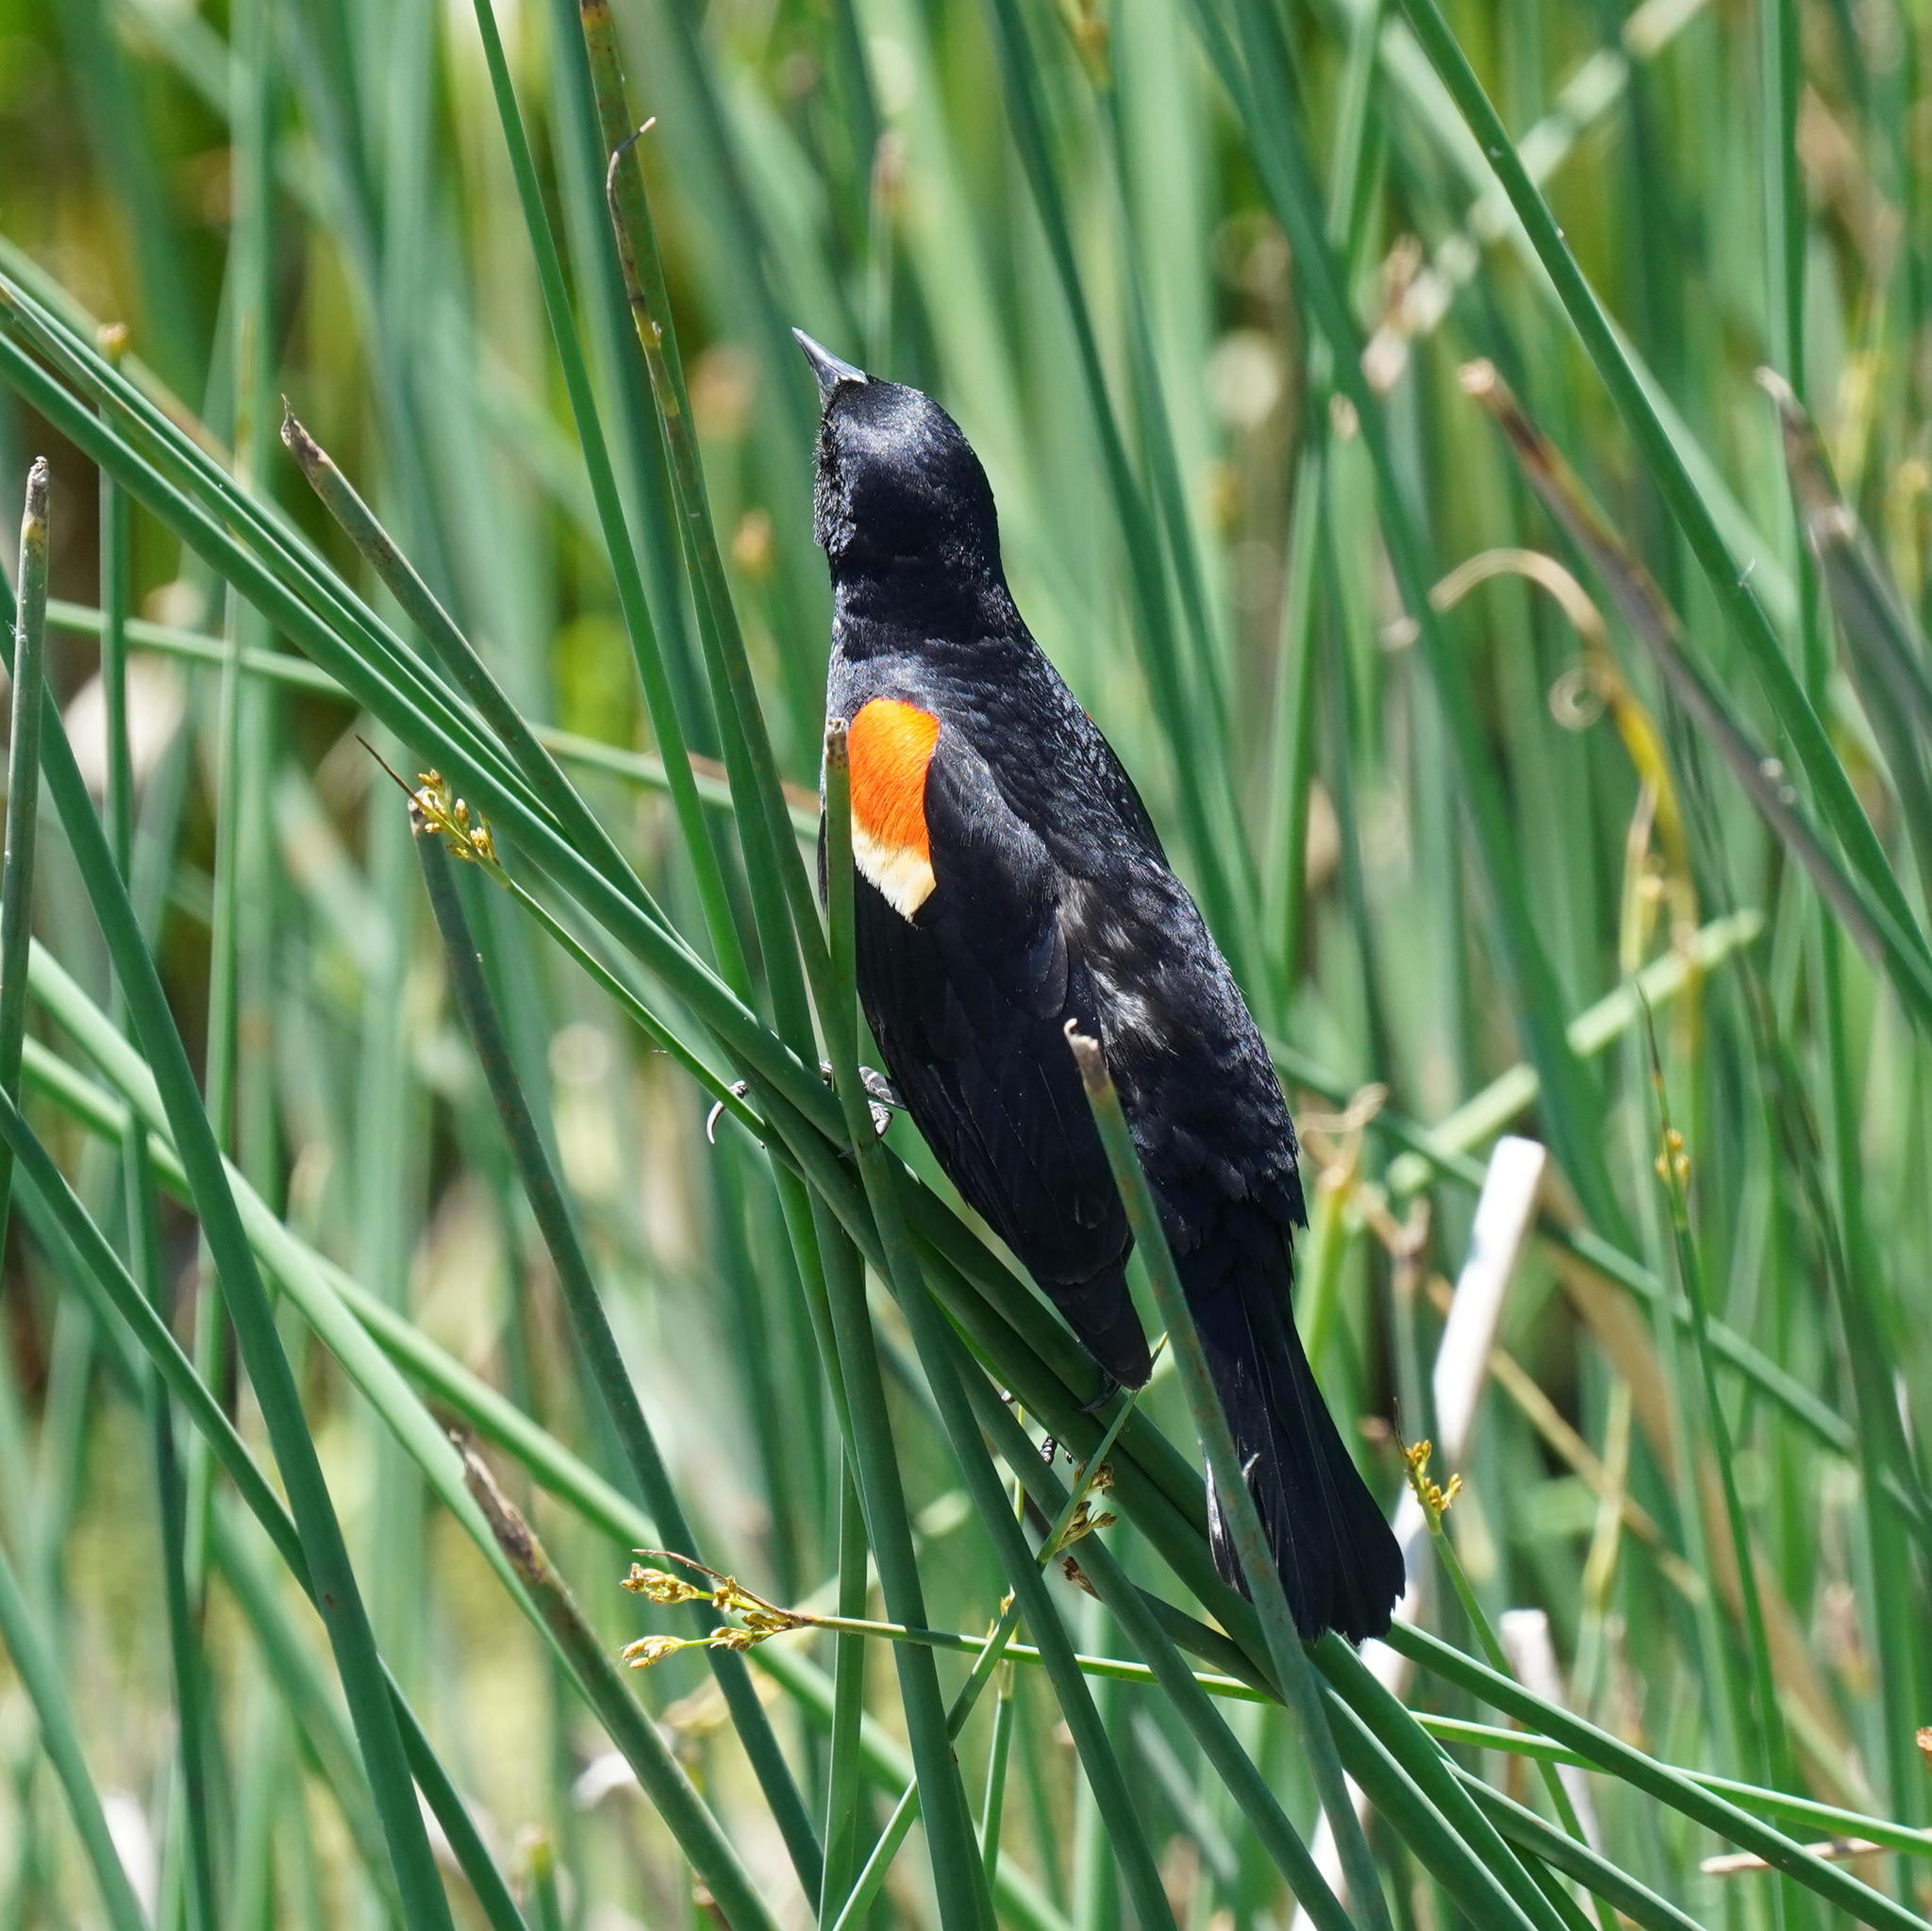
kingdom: Animalia
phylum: Chordata
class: Aves
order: Passeriformes
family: Icteridae
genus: Agelaius
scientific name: Agelaius phoeniceus
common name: Red-winged blackbird
